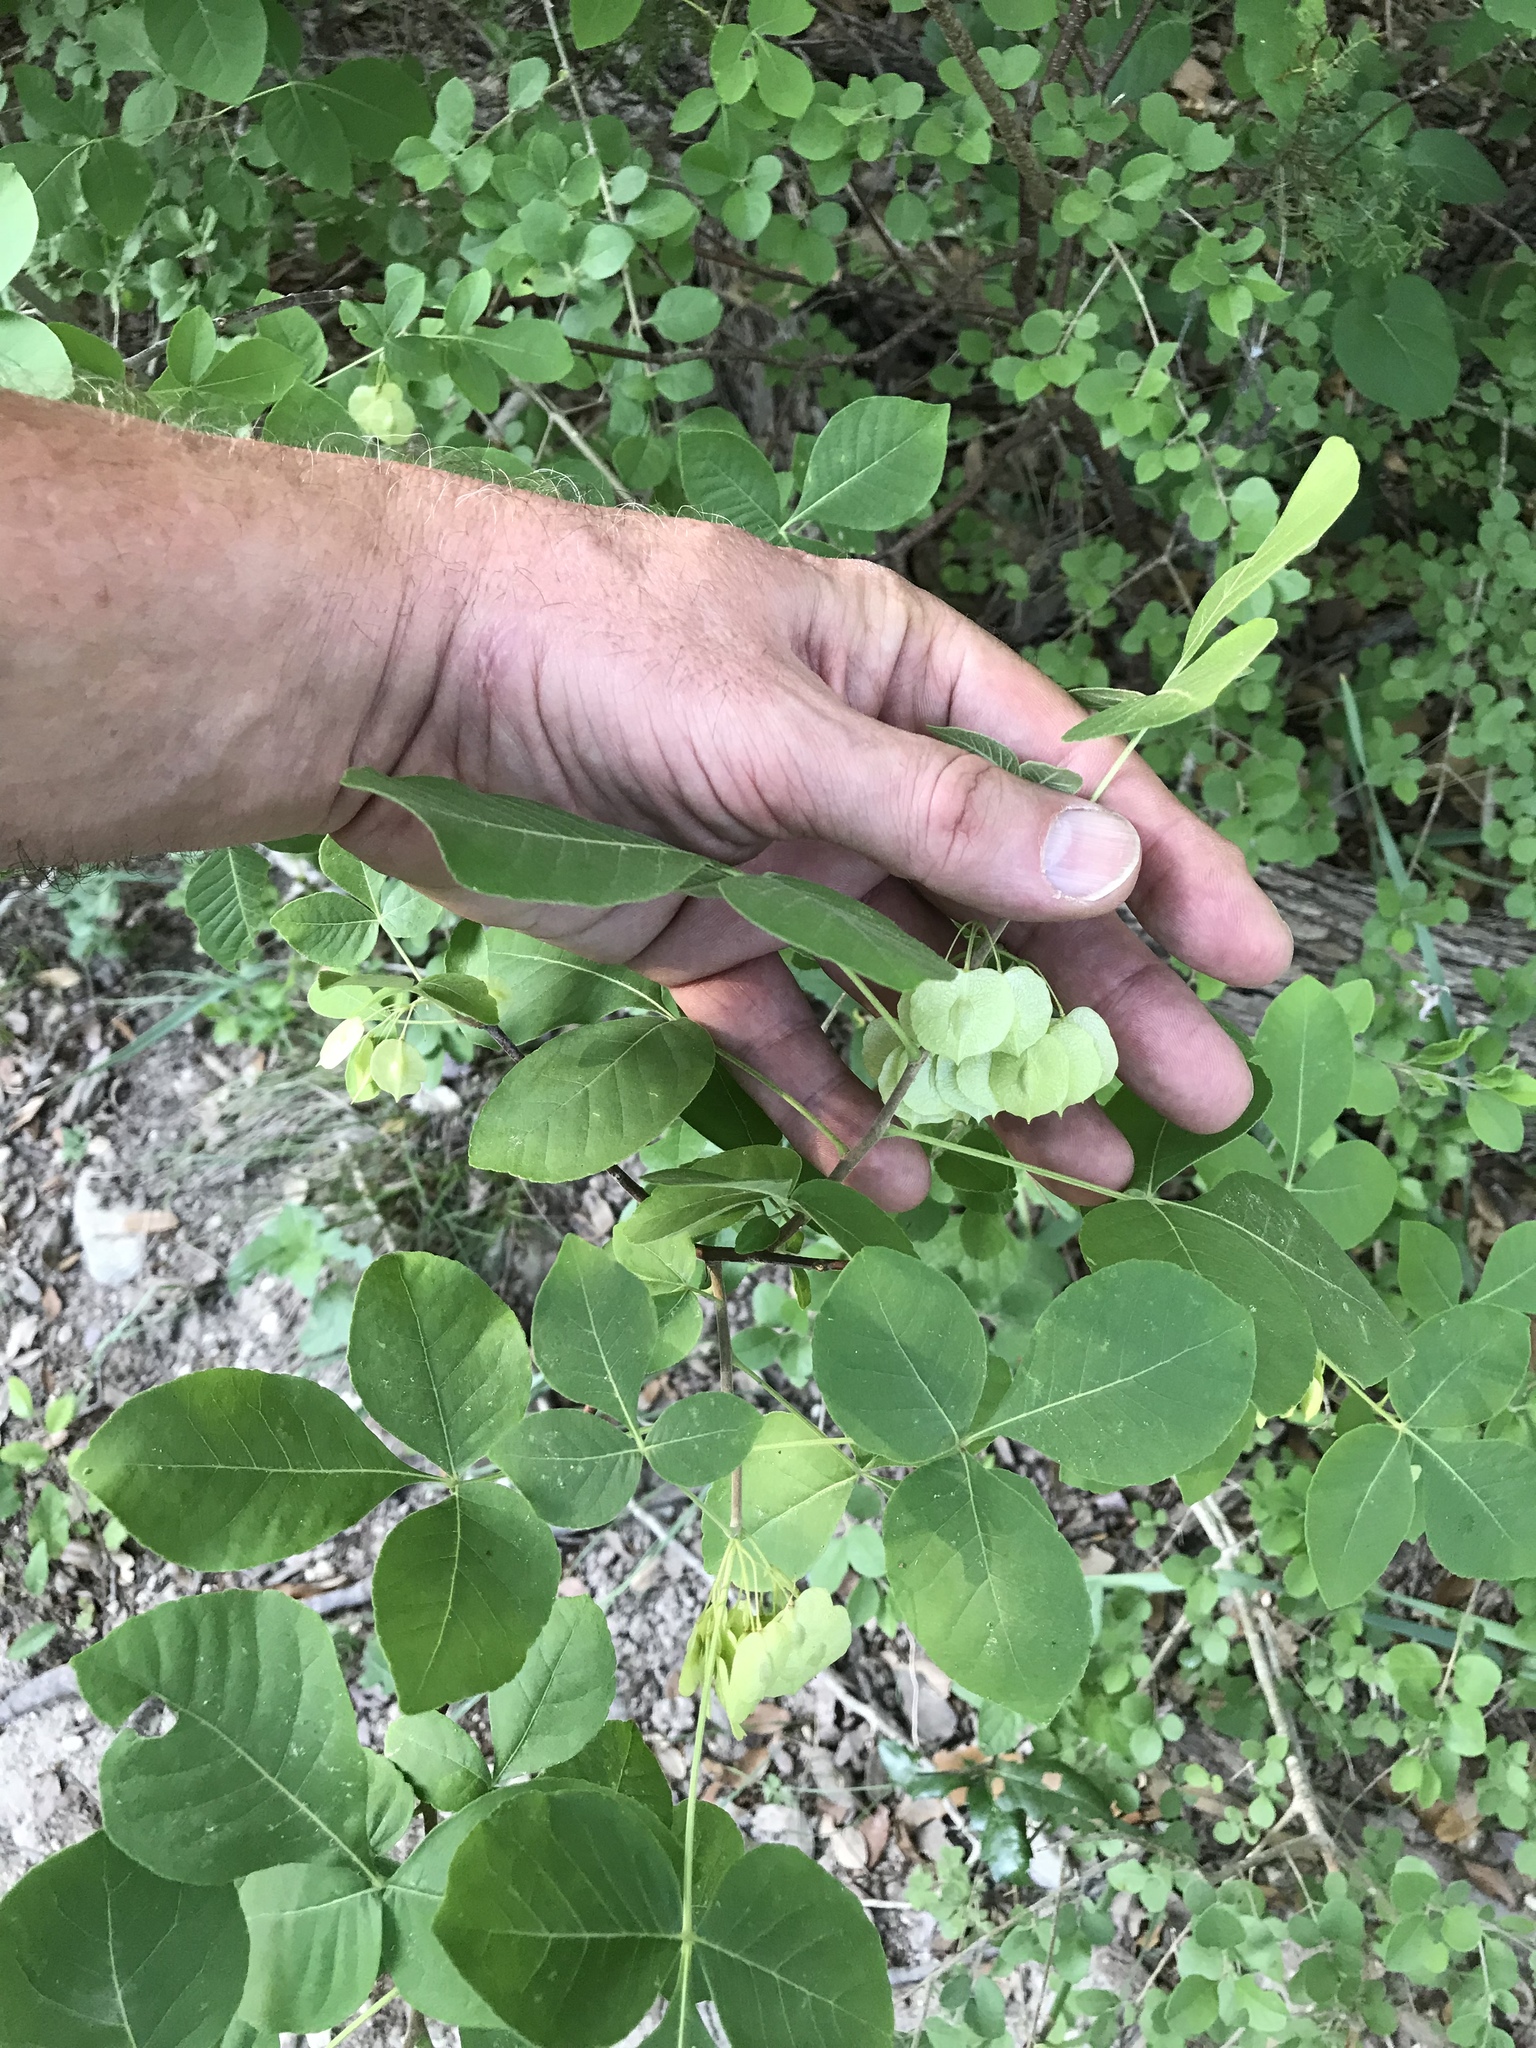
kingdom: Plantae
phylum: Tracheophyta
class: Magnoliopsida
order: Sapindales
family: Rutaceae
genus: Ptelea
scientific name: Ptelea trifoliata
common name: Common hop-tree
